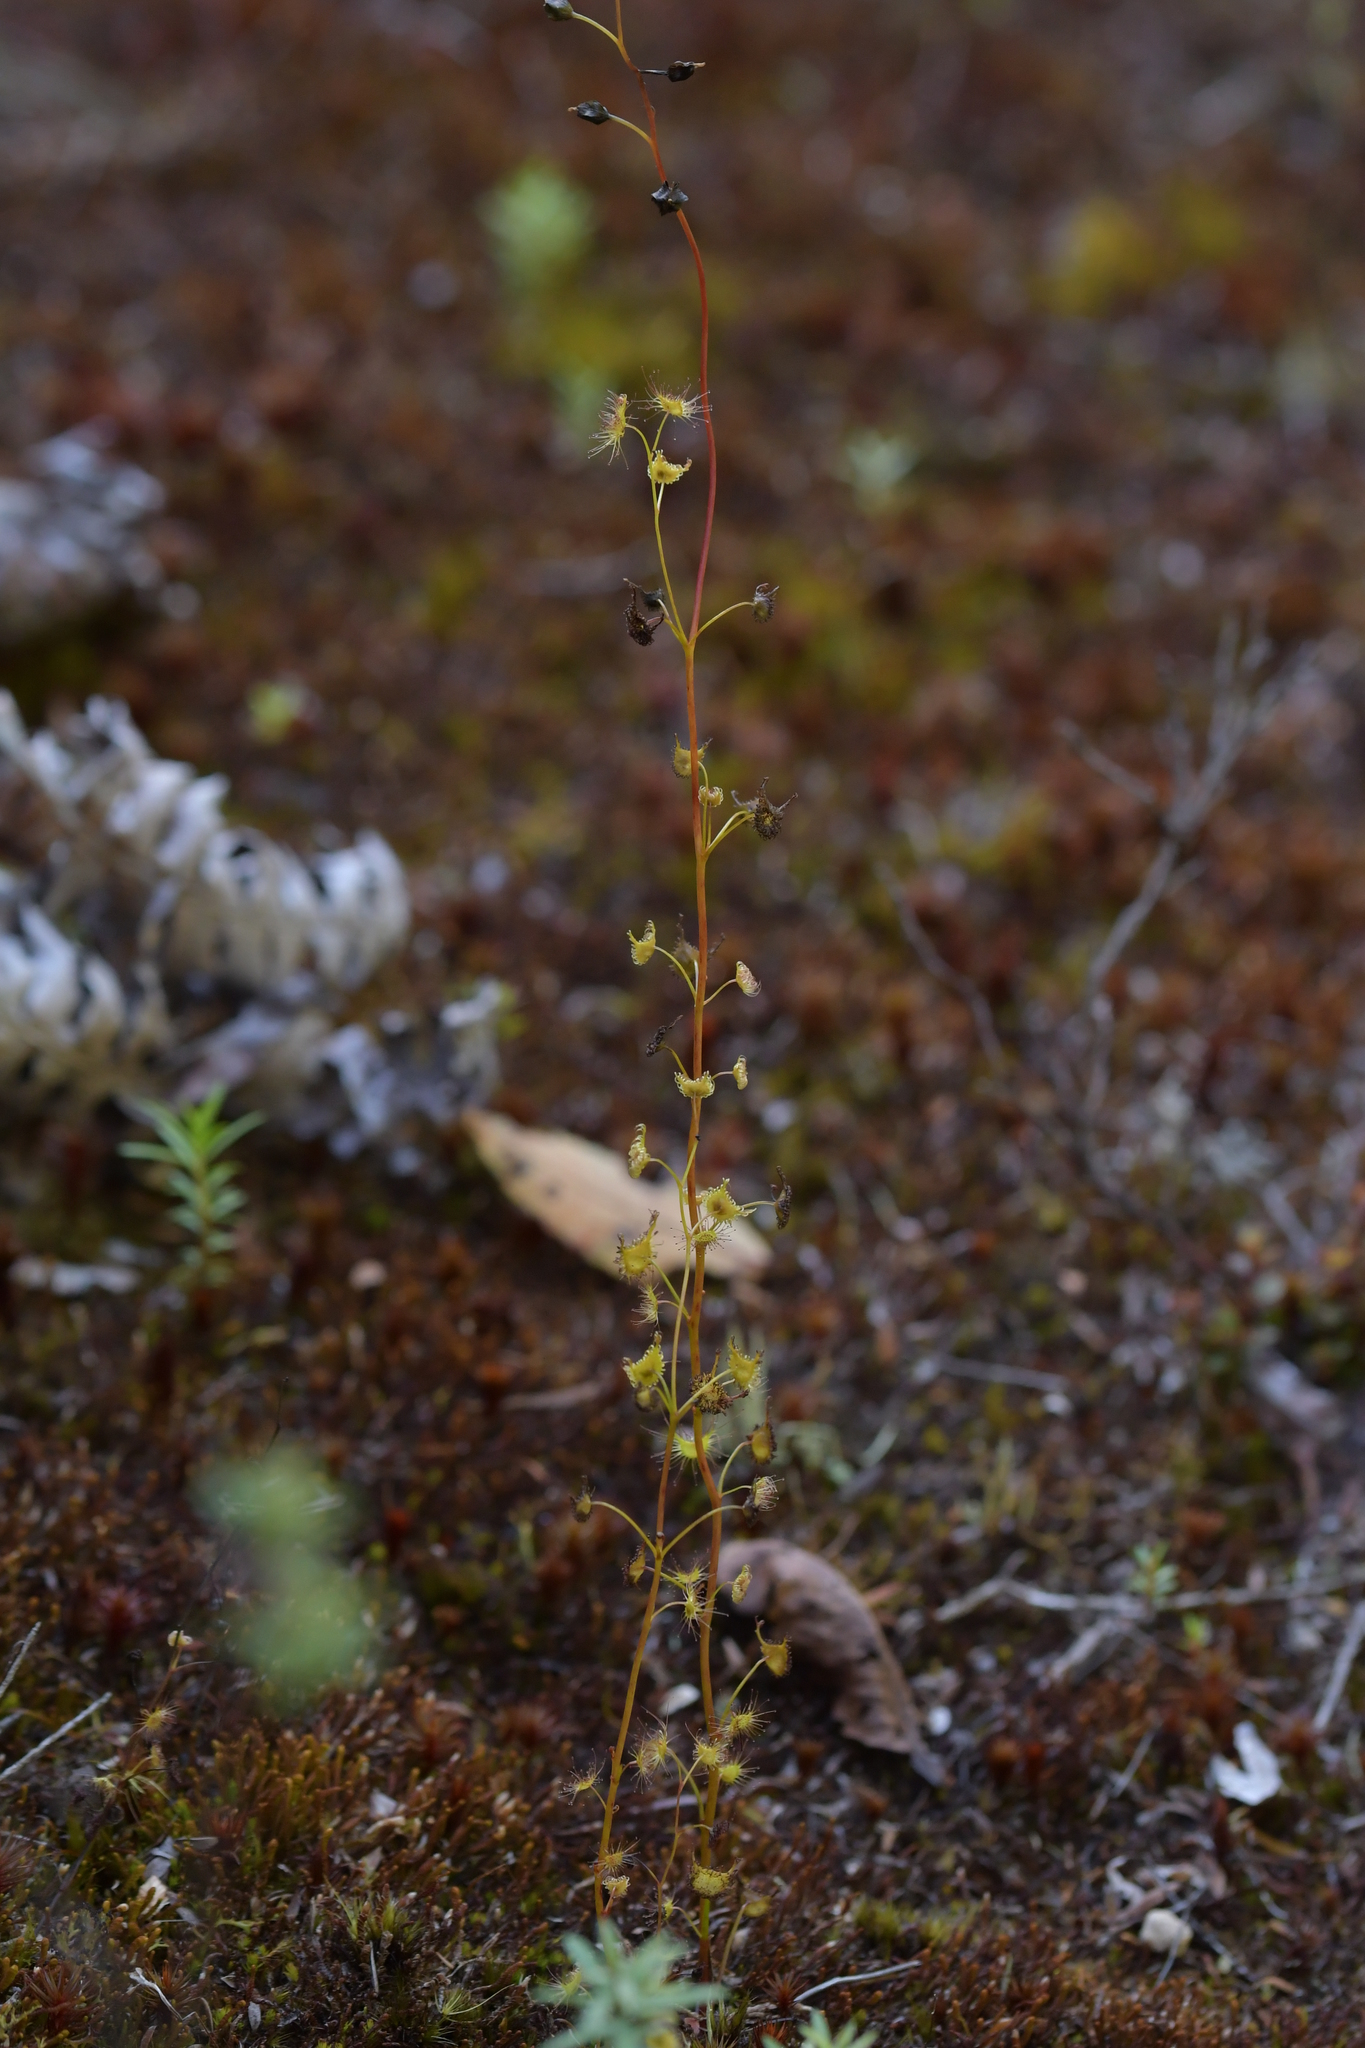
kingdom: Plantae
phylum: Tracheophyta
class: Magnoliopsida
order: Caryophyllales
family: Droseraceae
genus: Drosera
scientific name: Drosera peltata
